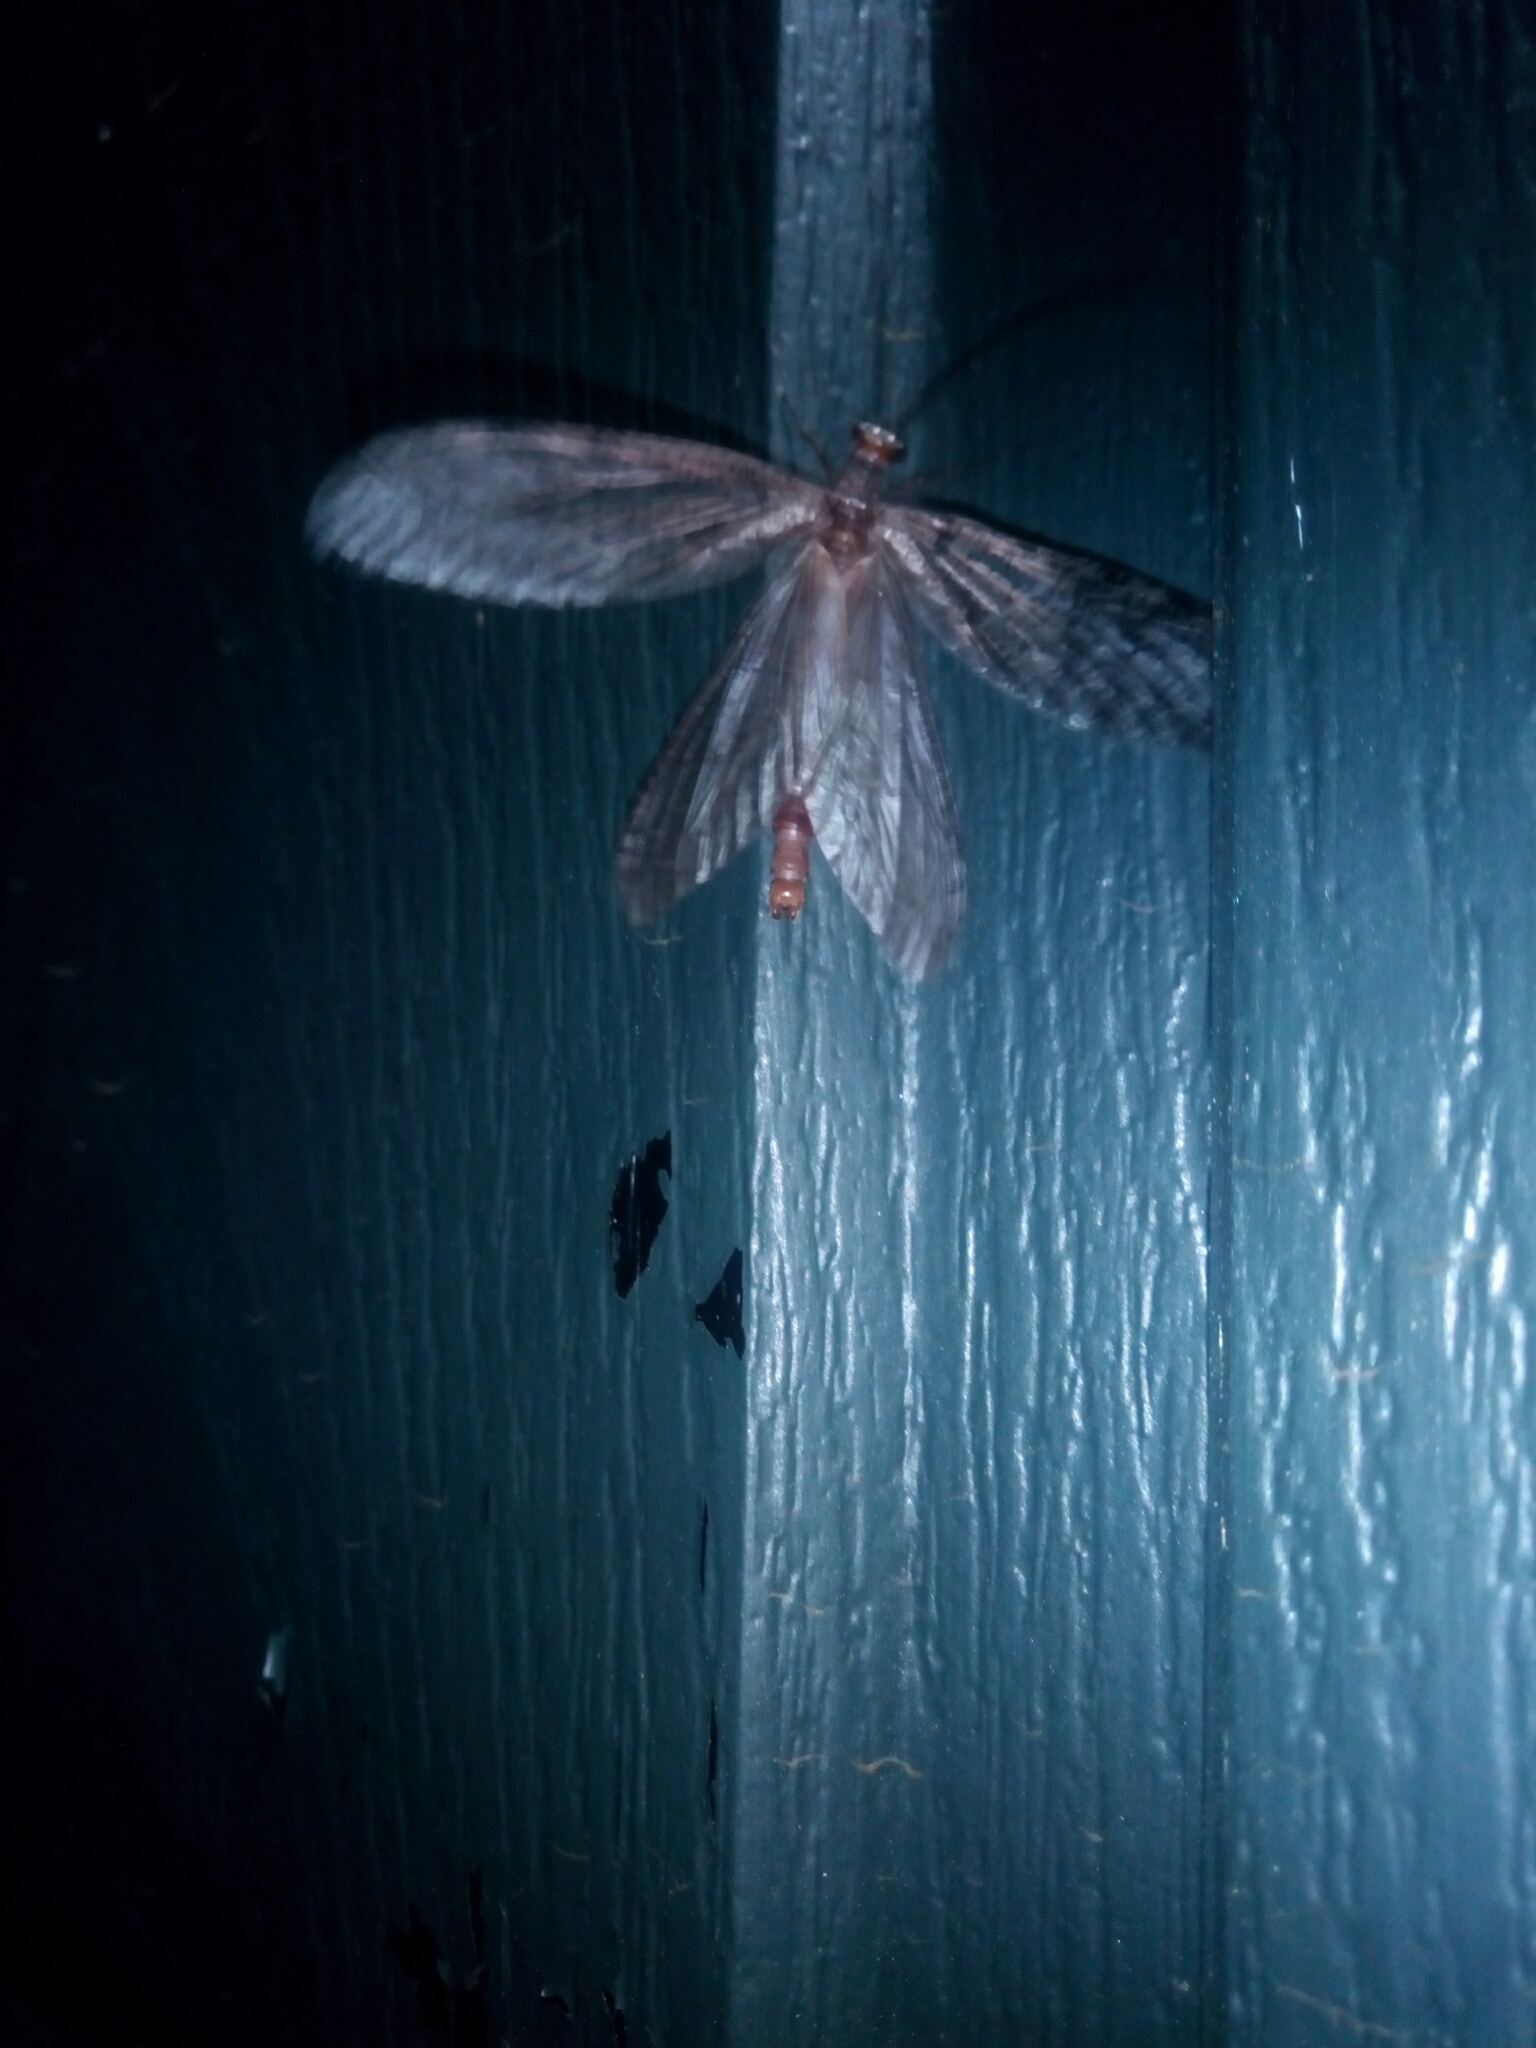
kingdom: Animalia
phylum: Arthropoda
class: Insecta
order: Megaloptera
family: Corydalidae
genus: Neohermes
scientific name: Neohermes angusticollis
